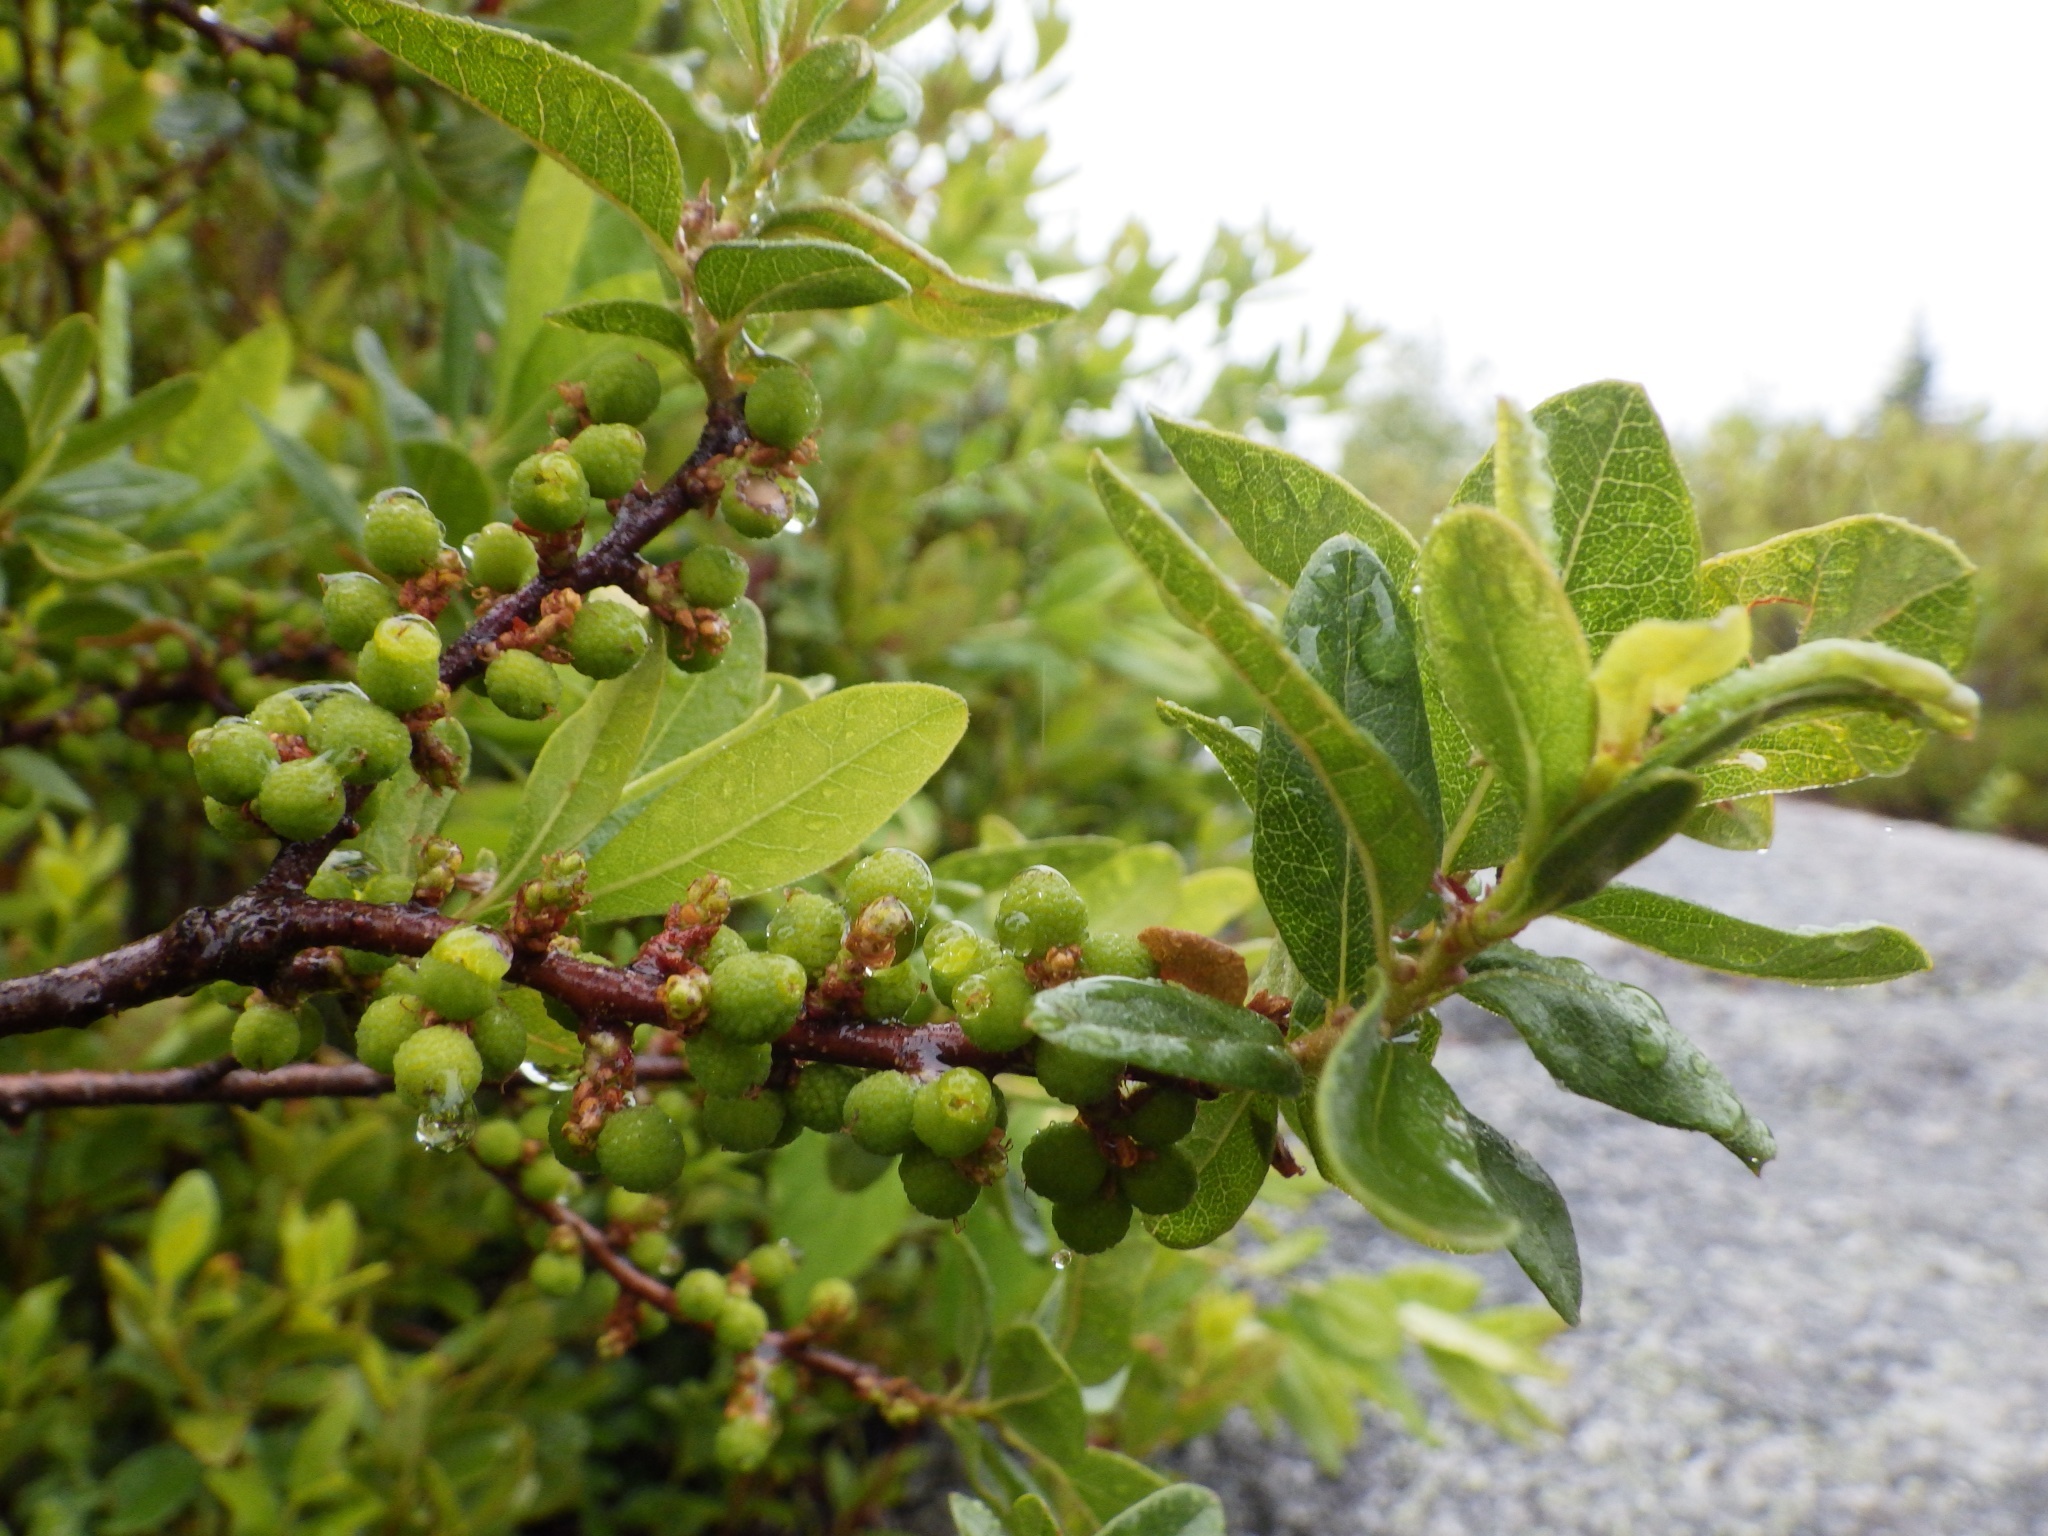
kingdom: Plantae
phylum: Tracheophyta
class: Magnoliopsida
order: Fagales
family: Myricaceae
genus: Morella
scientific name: Morella pensylvanica
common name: Northern bayberry
